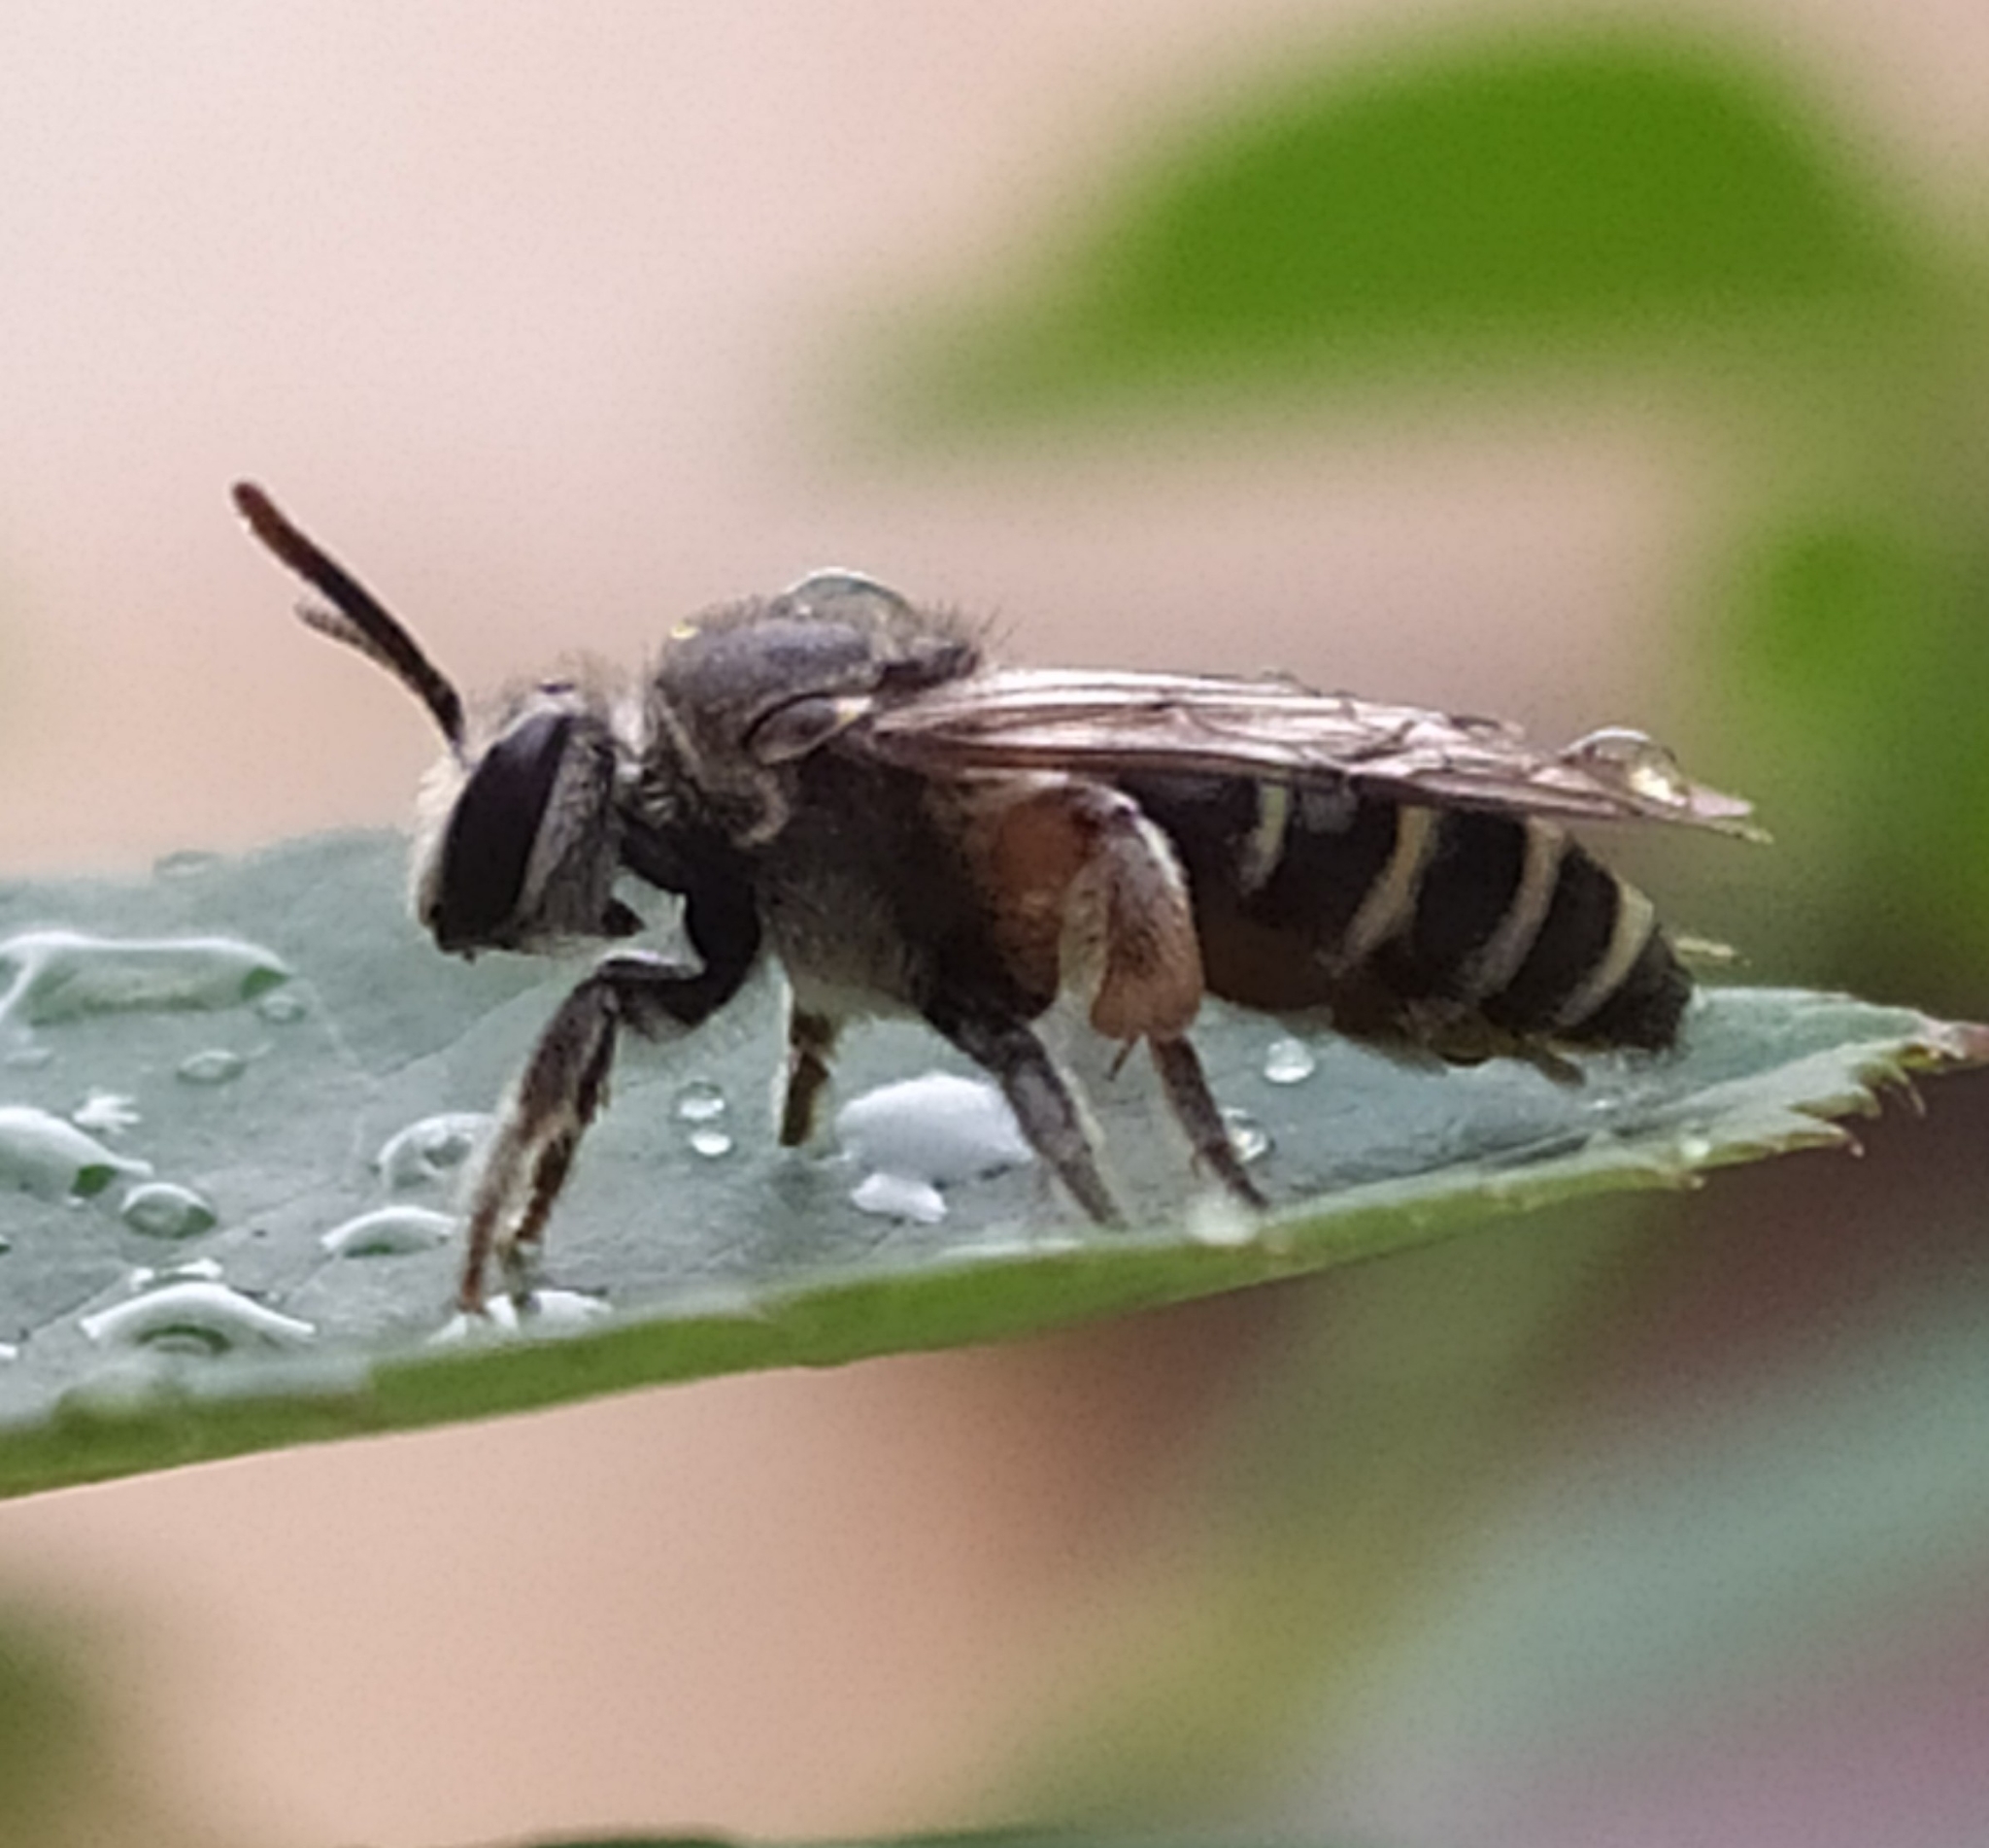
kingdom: Animalia
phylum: Arthropoda
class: Insecta
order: Hymenoptera
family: Halictidae
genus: Nomia
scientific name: Nomia westwoodi
